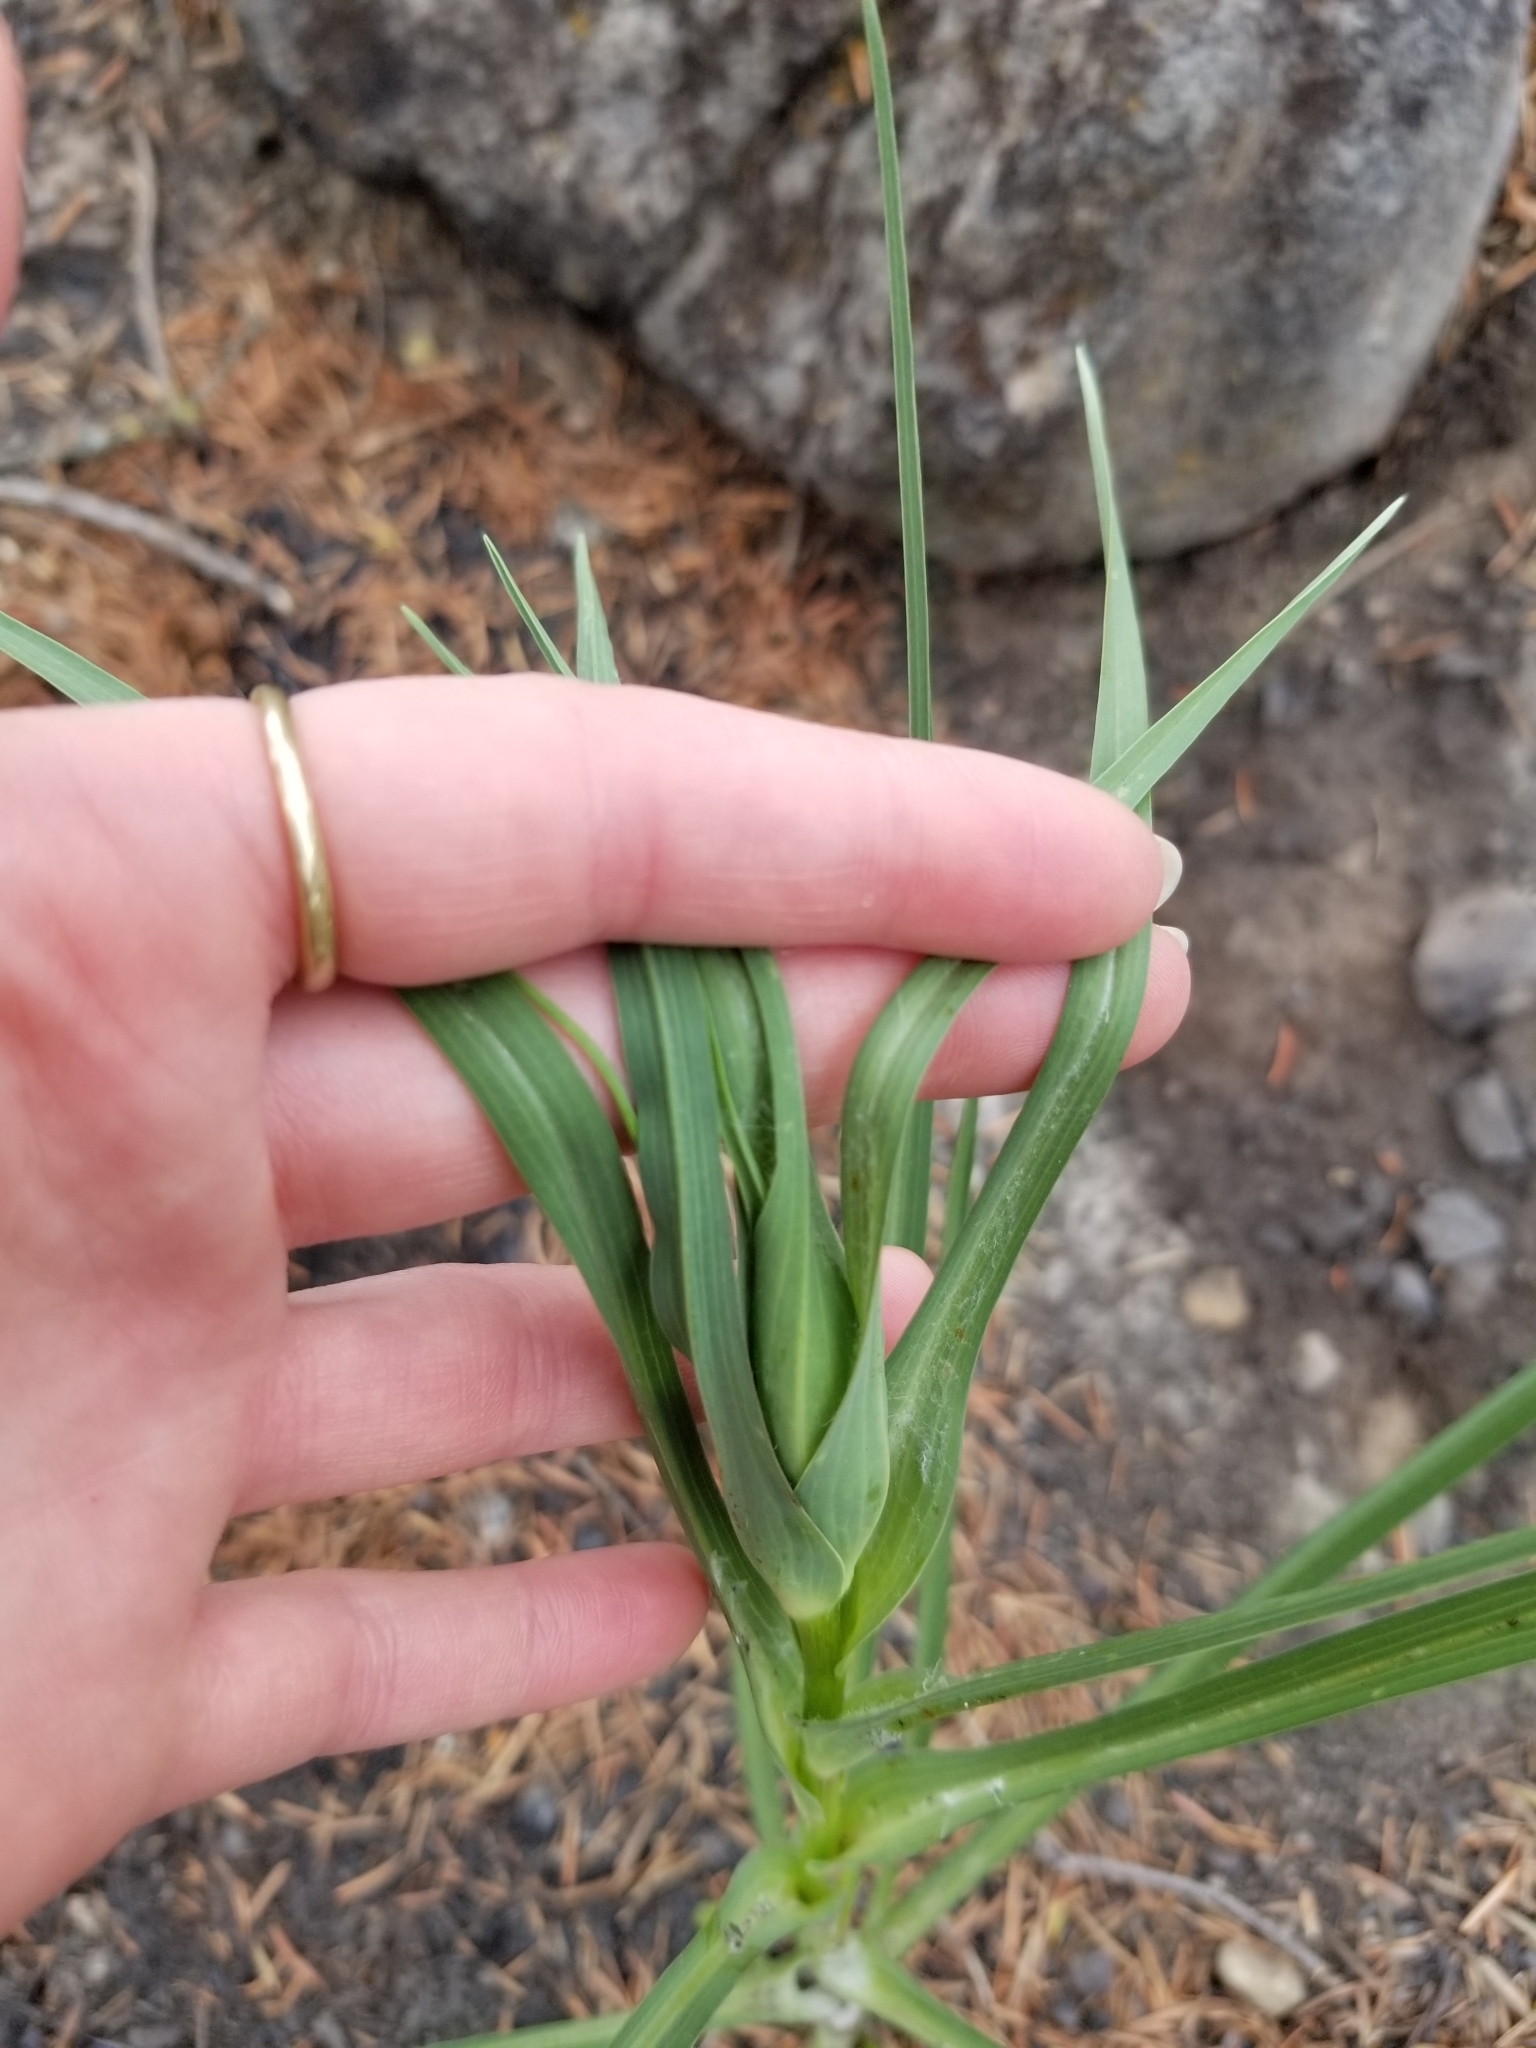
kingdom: Plantae
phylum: Tracheophyta
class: Magnoliopsida
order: Asterales
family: Asteraceae
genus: Tragopogon
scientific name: Tragopogon dubius
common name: Yellow salsify
